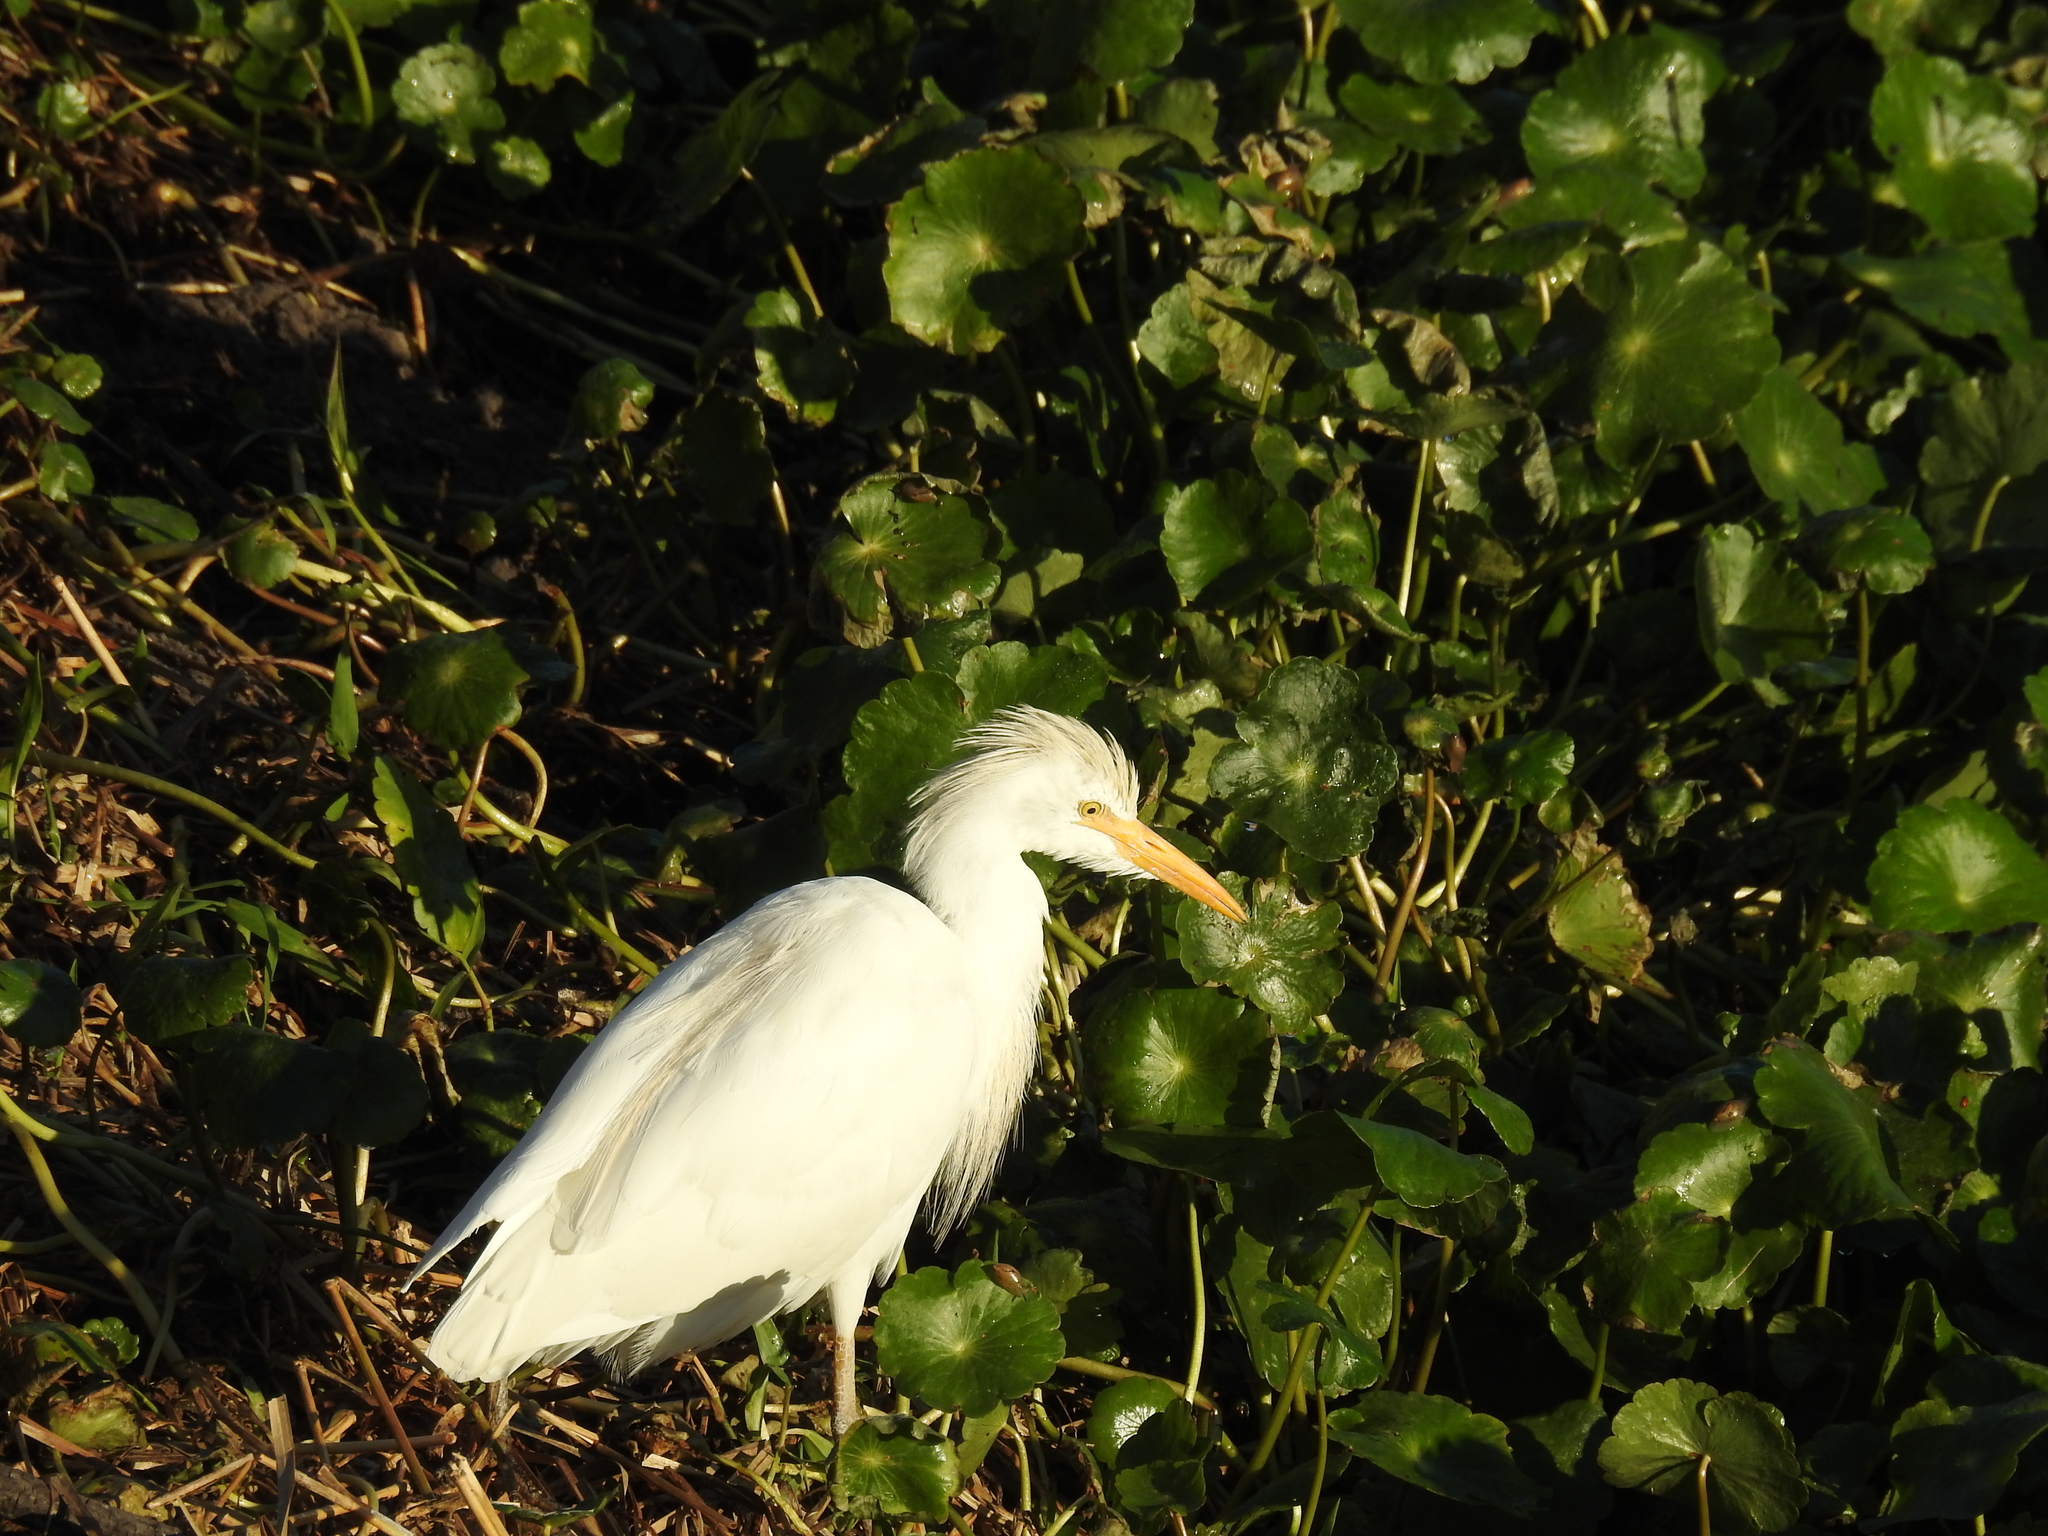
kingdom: Animalia
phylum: Chordata
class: Aves
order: Pelecaniformes
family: Ardeidae
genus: Bubulcus
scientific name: Bubulcus ibis
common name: Cattle egret
